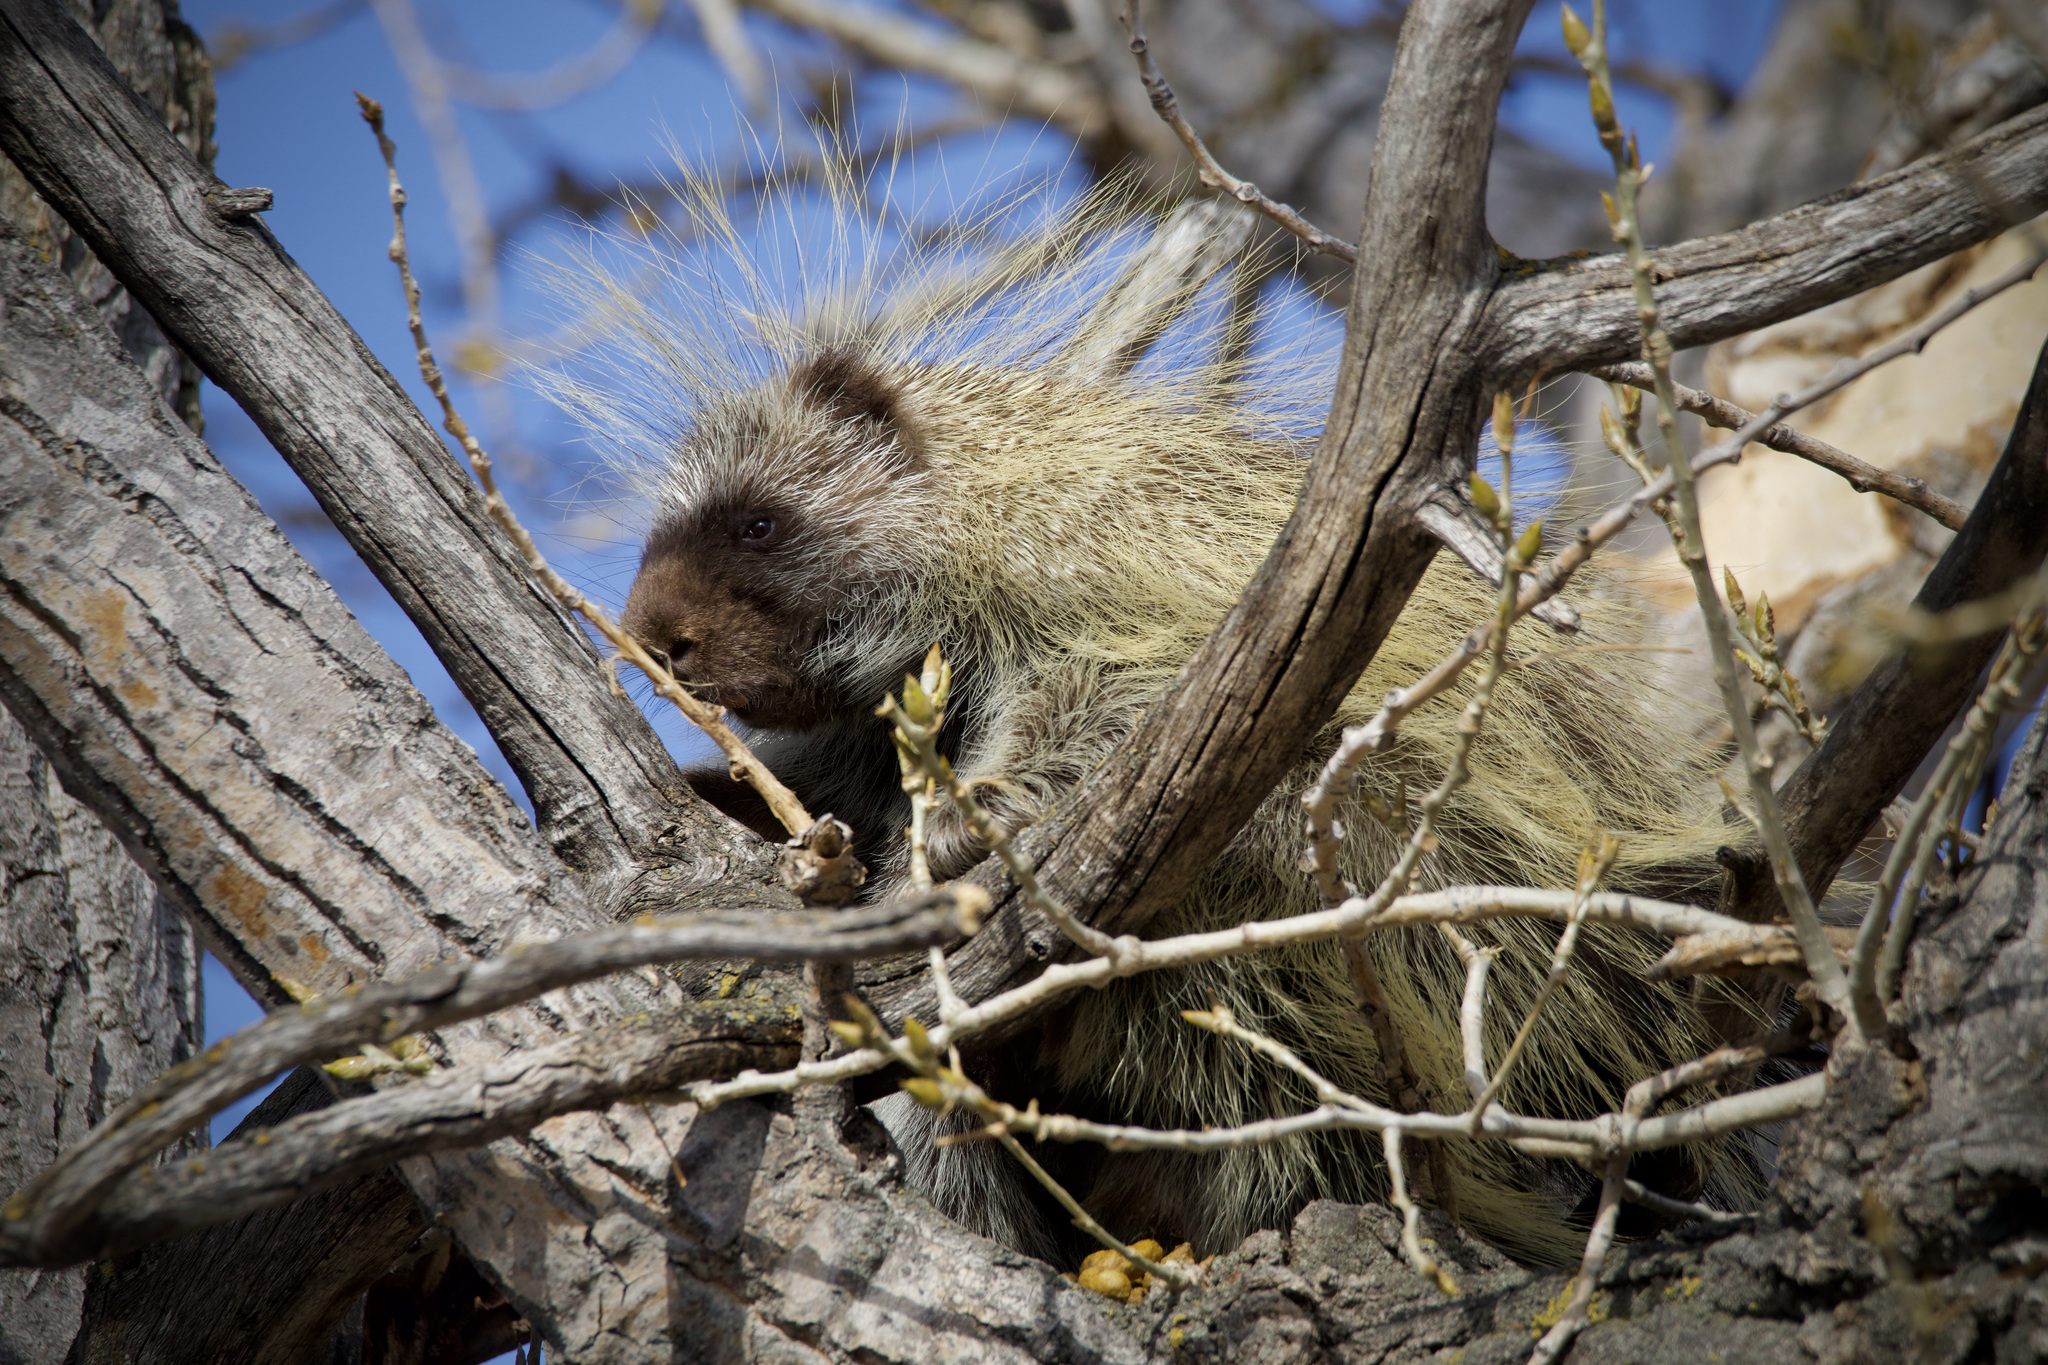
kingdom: Animalia
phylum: Chordata
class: Mammalia
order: Rodentia
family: Erethizontidae
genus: Erethizon
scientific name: Erethizon dorsatus
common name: North american porcupine
